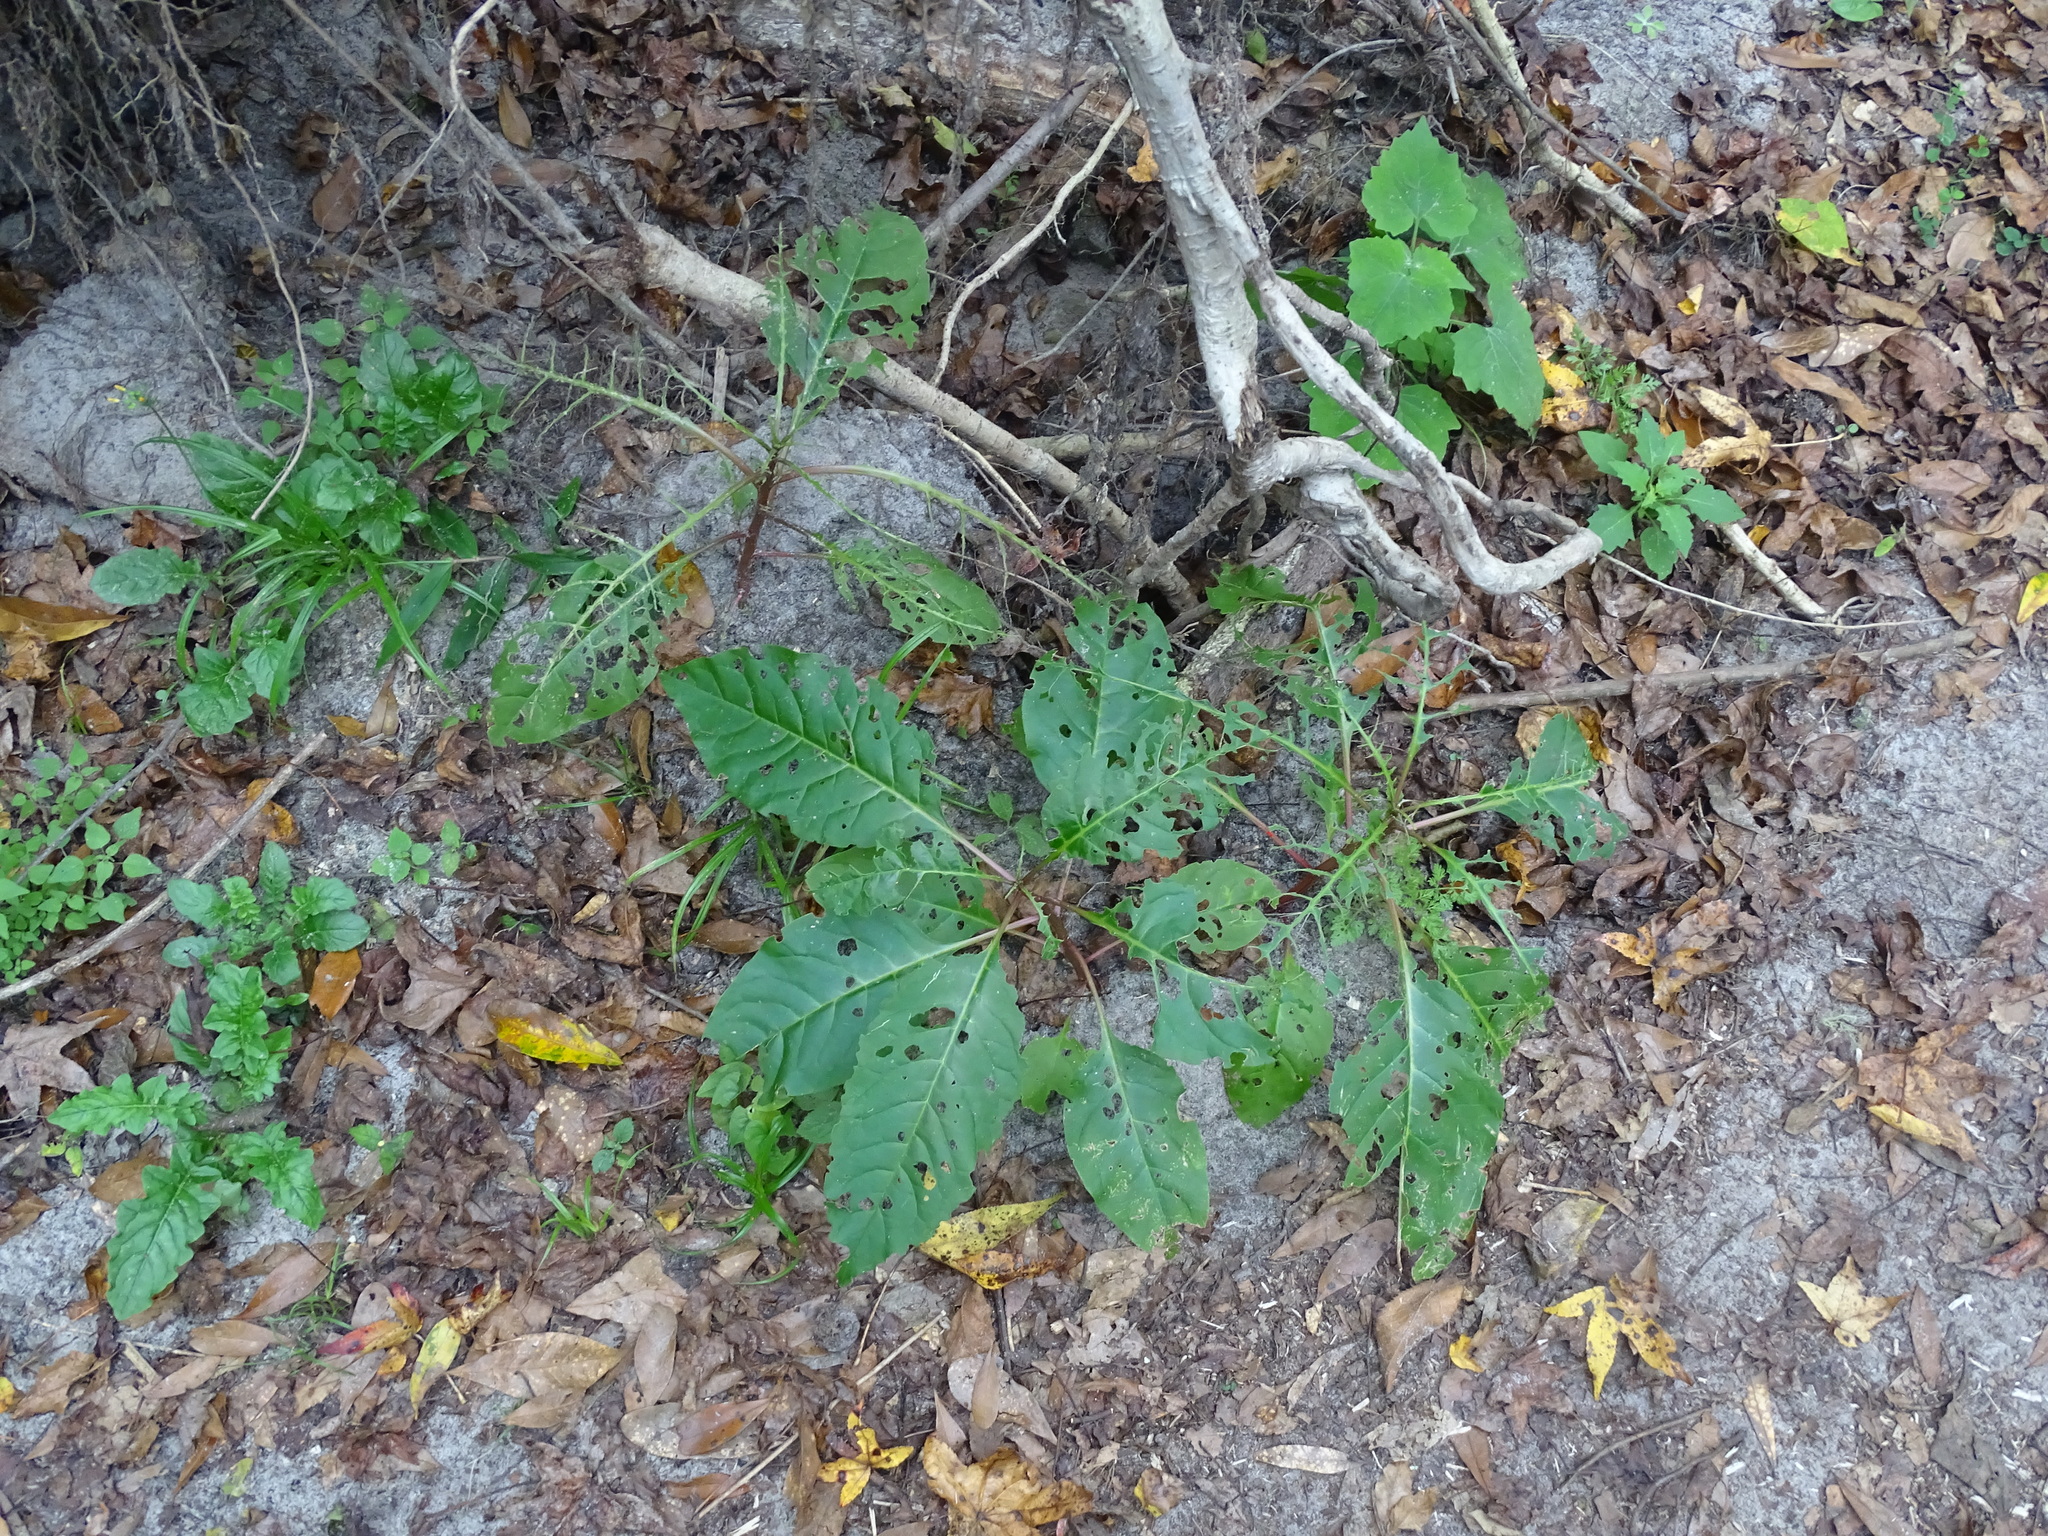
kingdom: Plantae
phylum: Tracheophyta
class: Magnoliopsida
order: Caryophyllales
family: Phytolaccaceae
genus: Phytolacca
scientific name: Phytolacca americana
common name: American pokeweed
